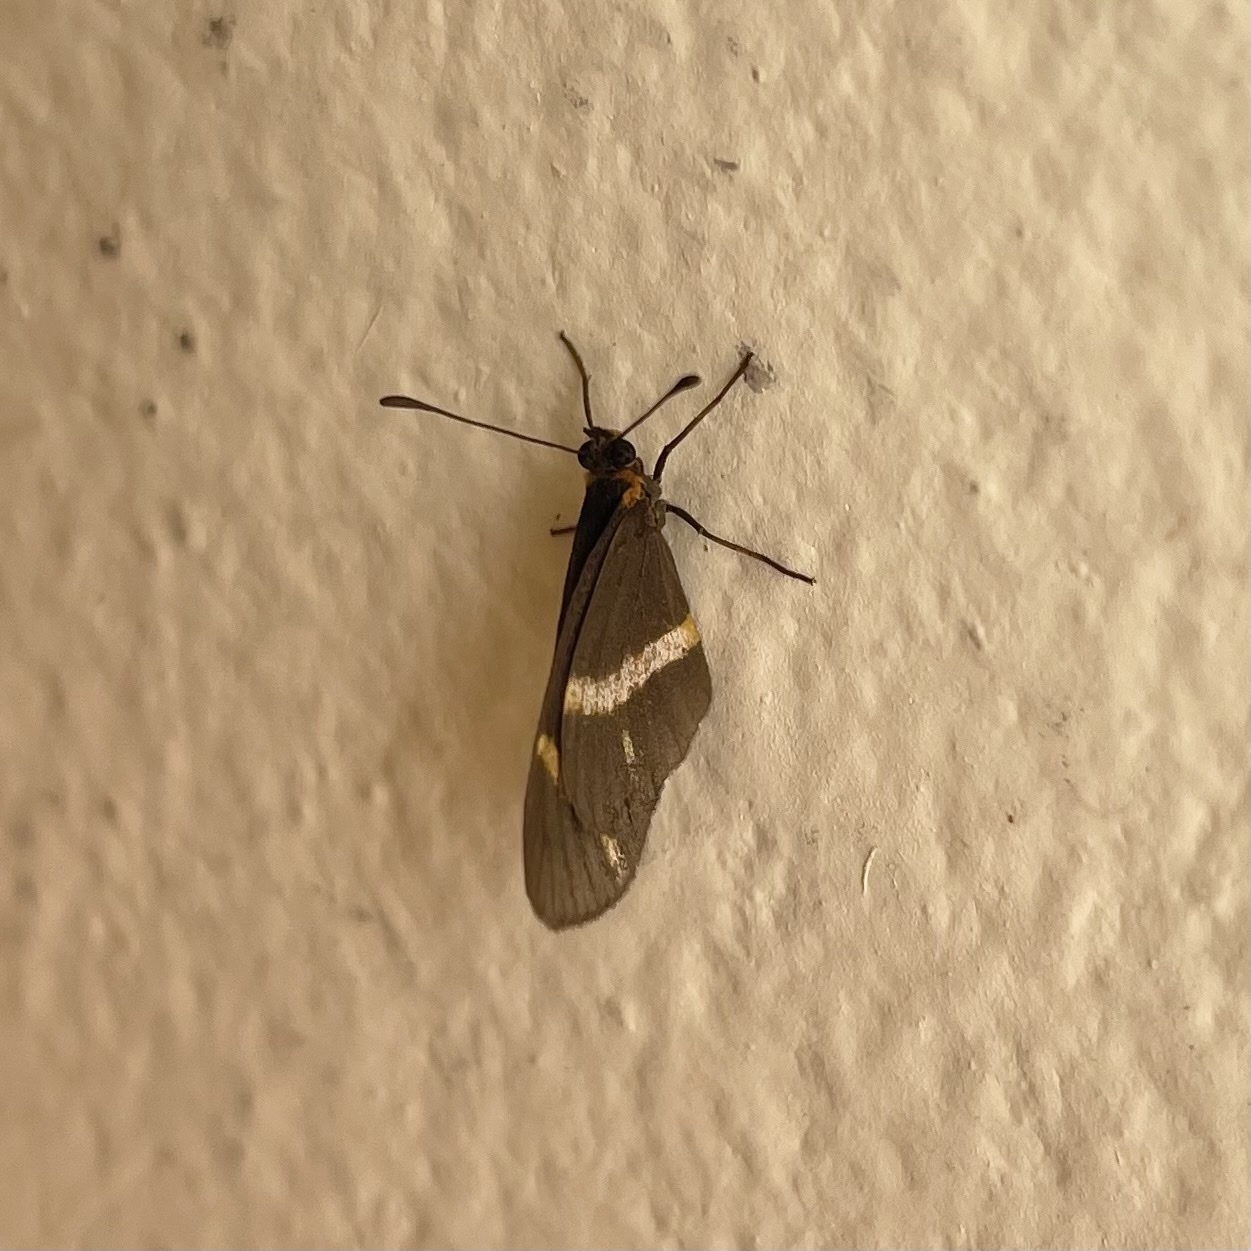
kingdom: Animalia
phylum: Arthropoda
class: Insecta
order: Lepidoptera
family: Nymphalidae
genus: Microtia
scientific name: Microtia elva
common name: Elf
